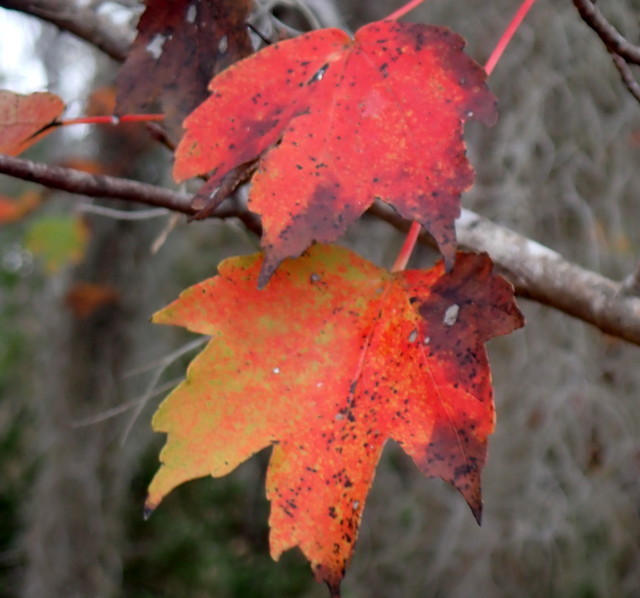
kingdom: Plantae
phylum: Tracheophyta
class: Magnoliopsida
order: Sapindales
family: Sapindaceae
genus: Acer
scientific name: Acer rubrum
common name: Red maple
